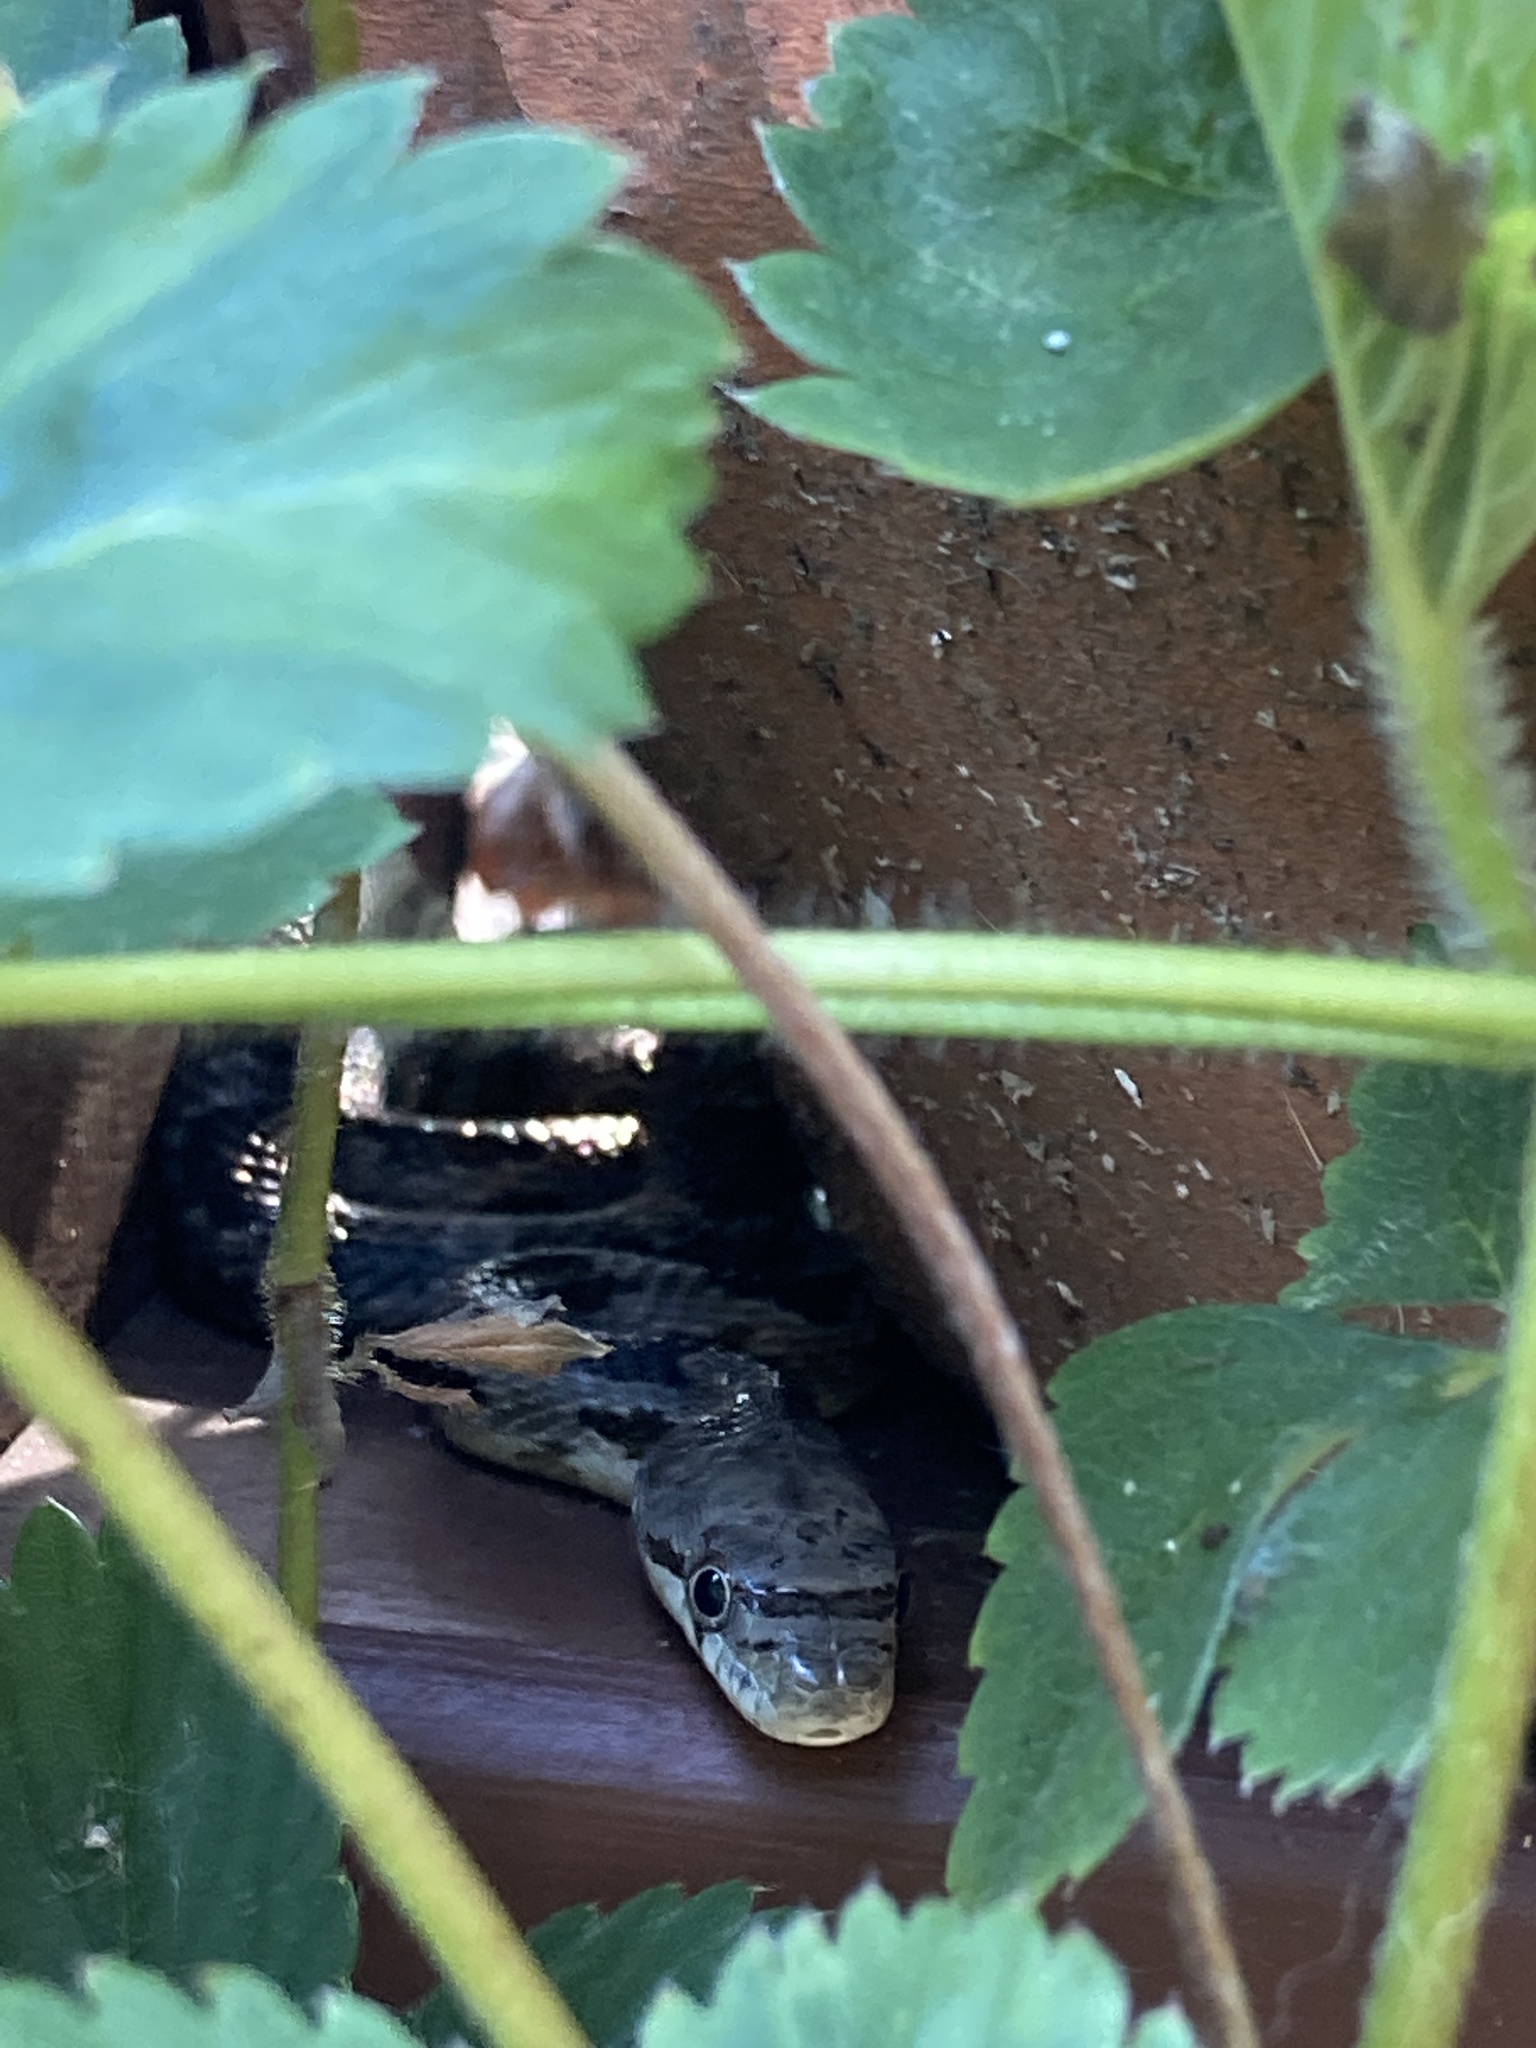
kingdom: Animalia
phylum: Chordata
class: Squamata
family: Colubridae
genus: Pantherophis
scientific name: Pantherophis alleghaniensis
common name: Eastern rat snake
